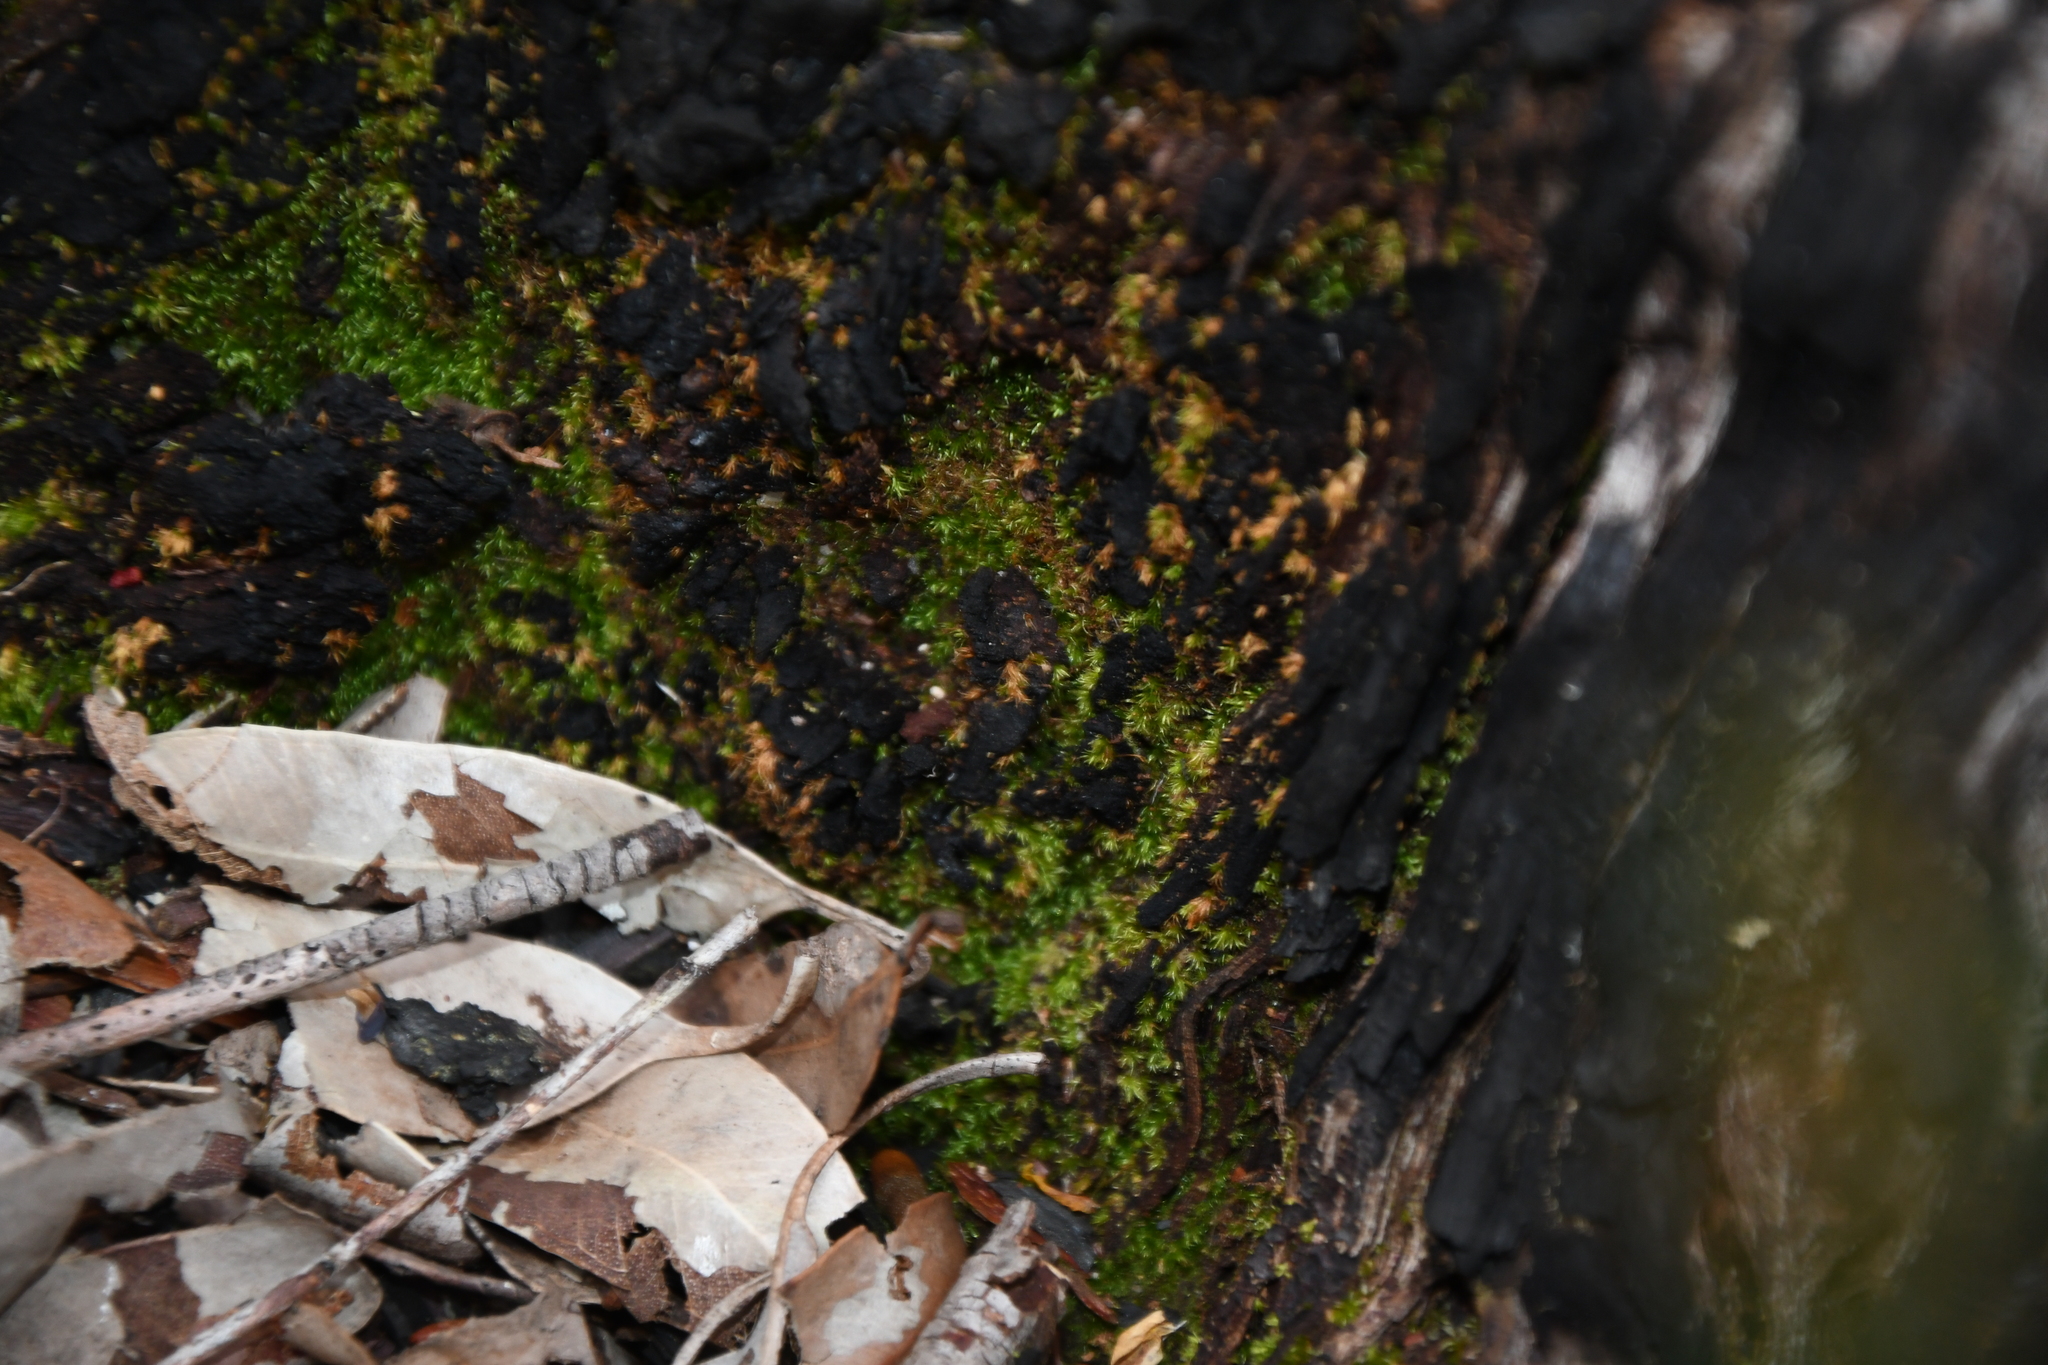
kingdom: Plantae
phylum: Bryophyta
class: Bryopsida
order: Orthodontiales
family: Orthodontiaceae
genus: Orthodontium
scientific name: Orthodontium lineare
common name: Cape thread-moss
